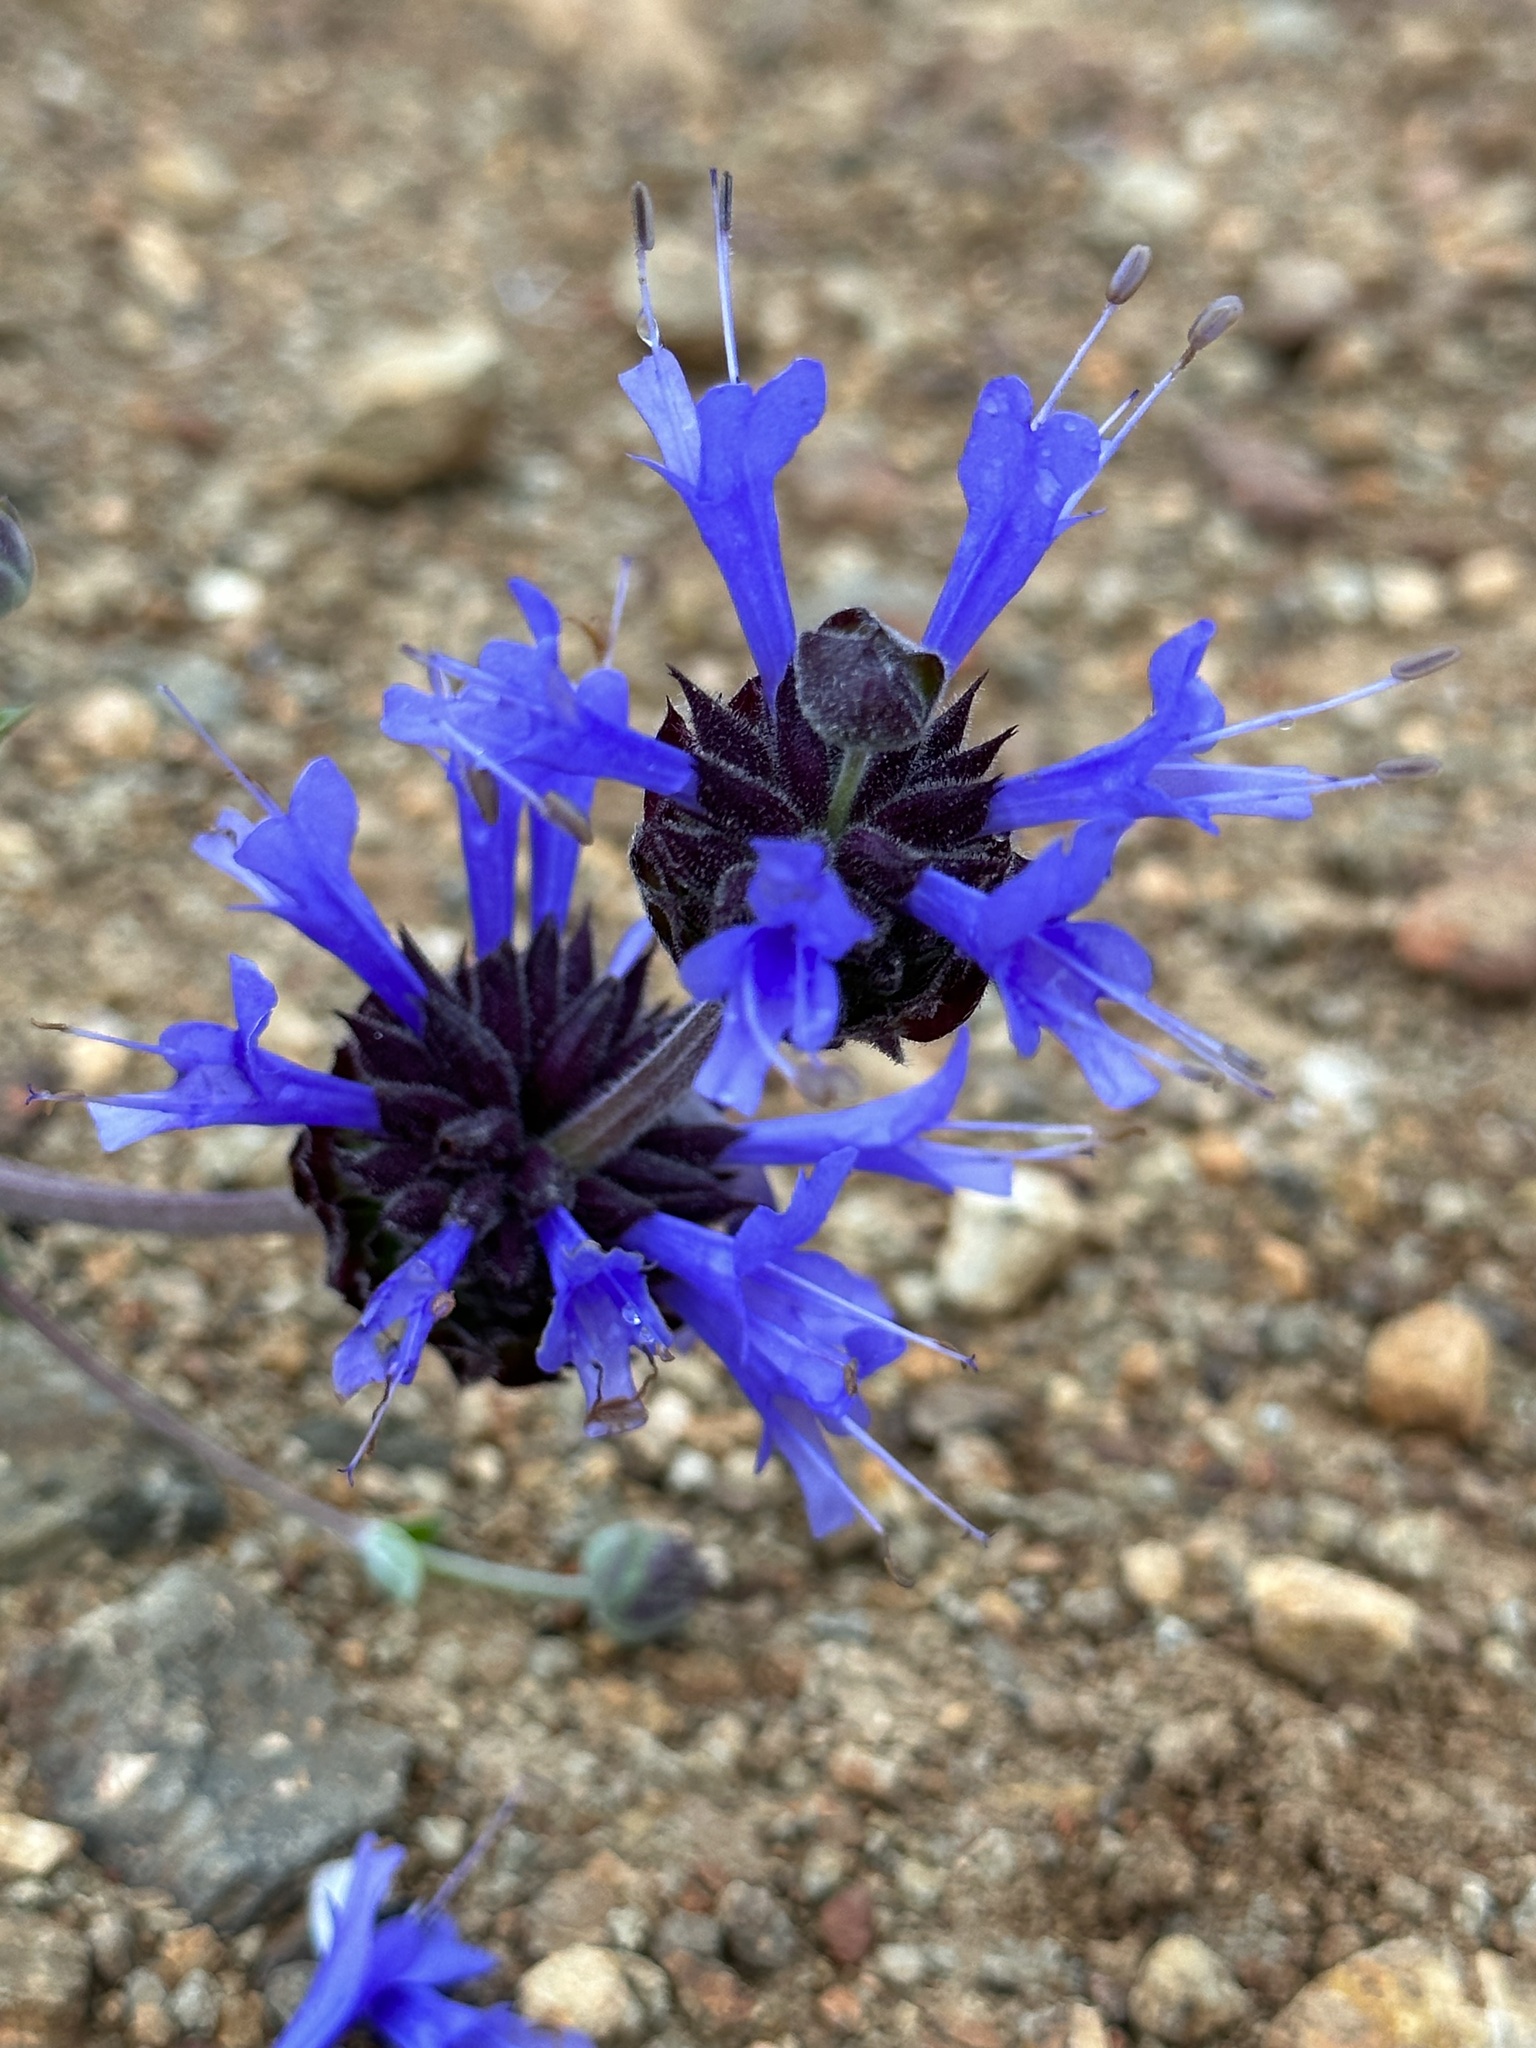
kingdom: Plantae
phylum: Tracheophyta
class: Magnoliopsida
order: Lamiales
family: Lamiaceae
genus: Salvia
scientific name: Salvia clevelandii
